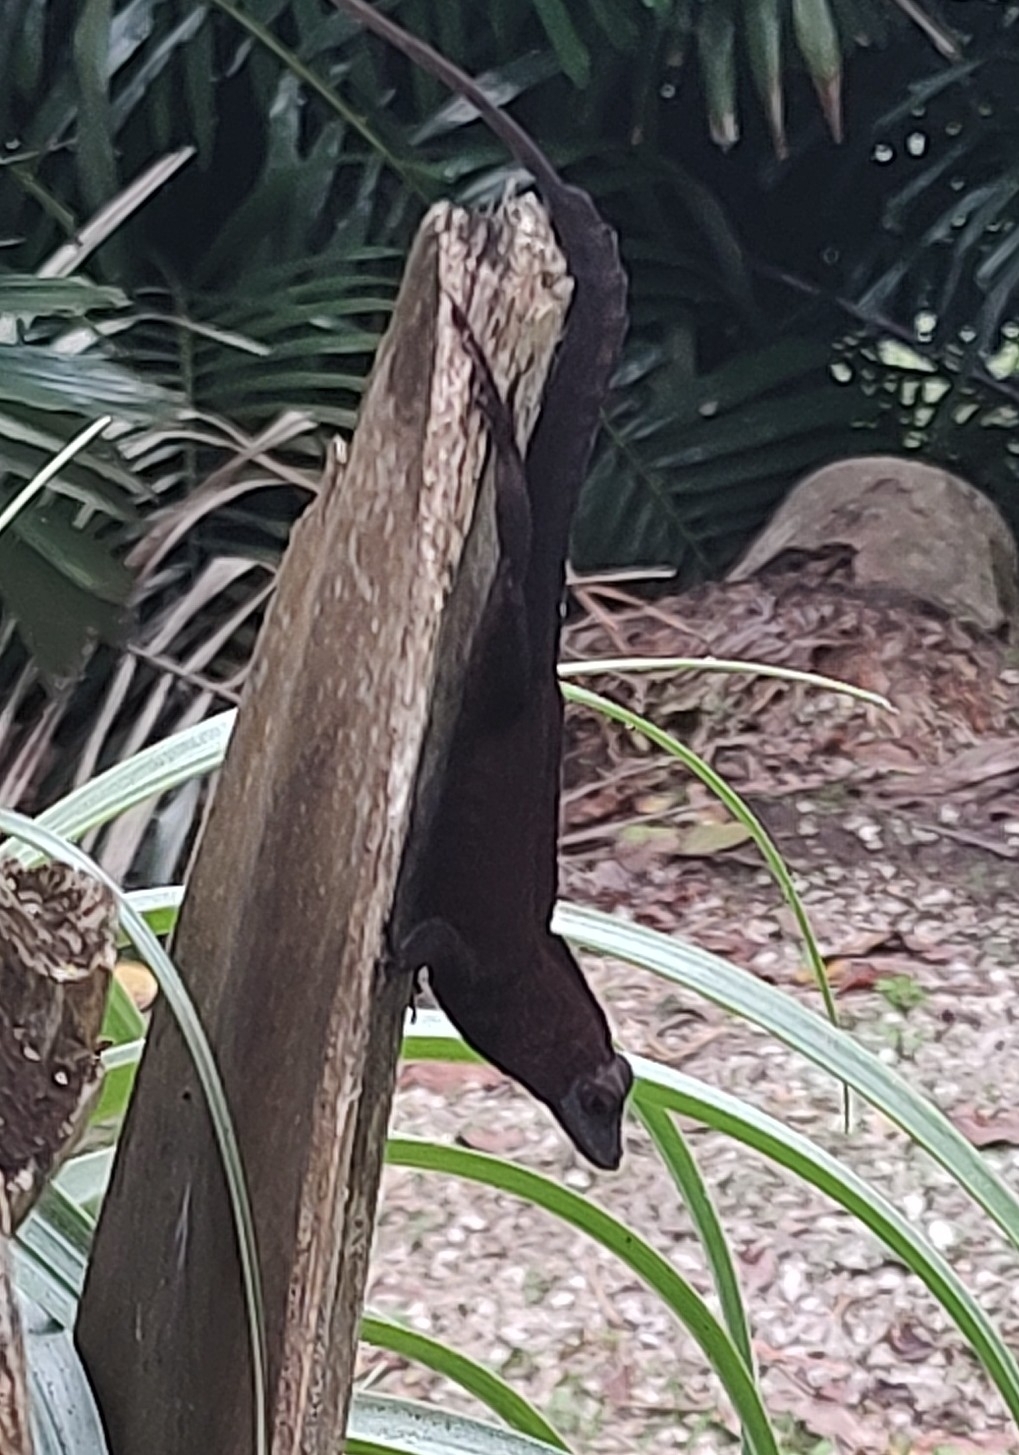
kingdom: Animalia
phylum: Chordata
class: Squamata
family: Dactyloidae
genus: Anolis
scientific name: Anolis cristatellus
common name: Crested anole
